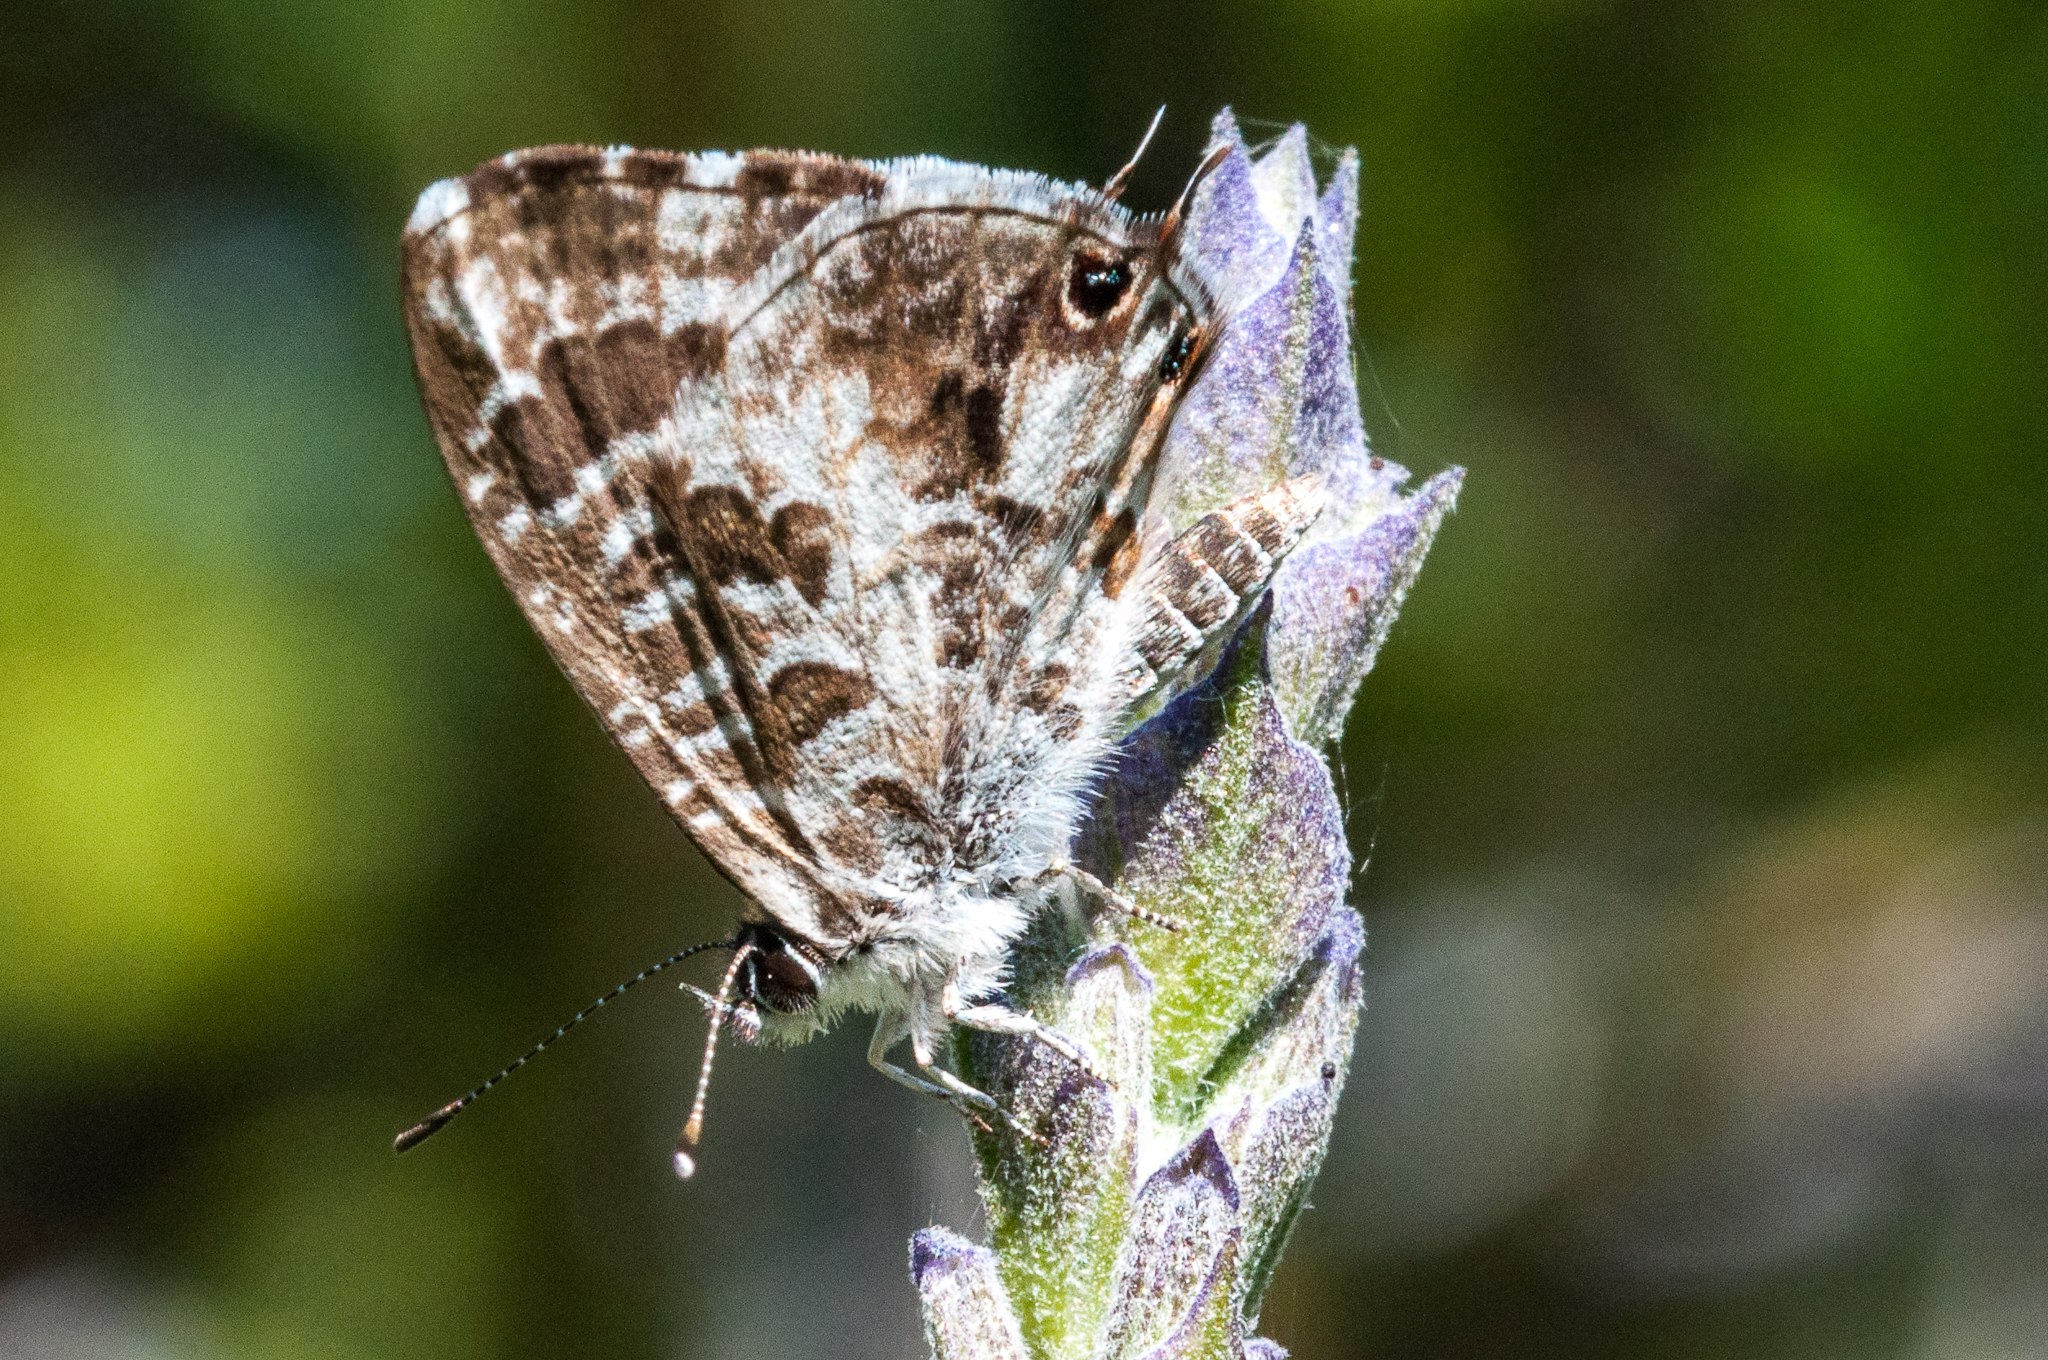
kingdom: Animalia
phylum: Arthropoda
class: Insecta
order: Lepidoptera
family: Lycaenidae
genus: Cacyreus
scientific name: Cacyreus lingeus
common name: Bush bronze
